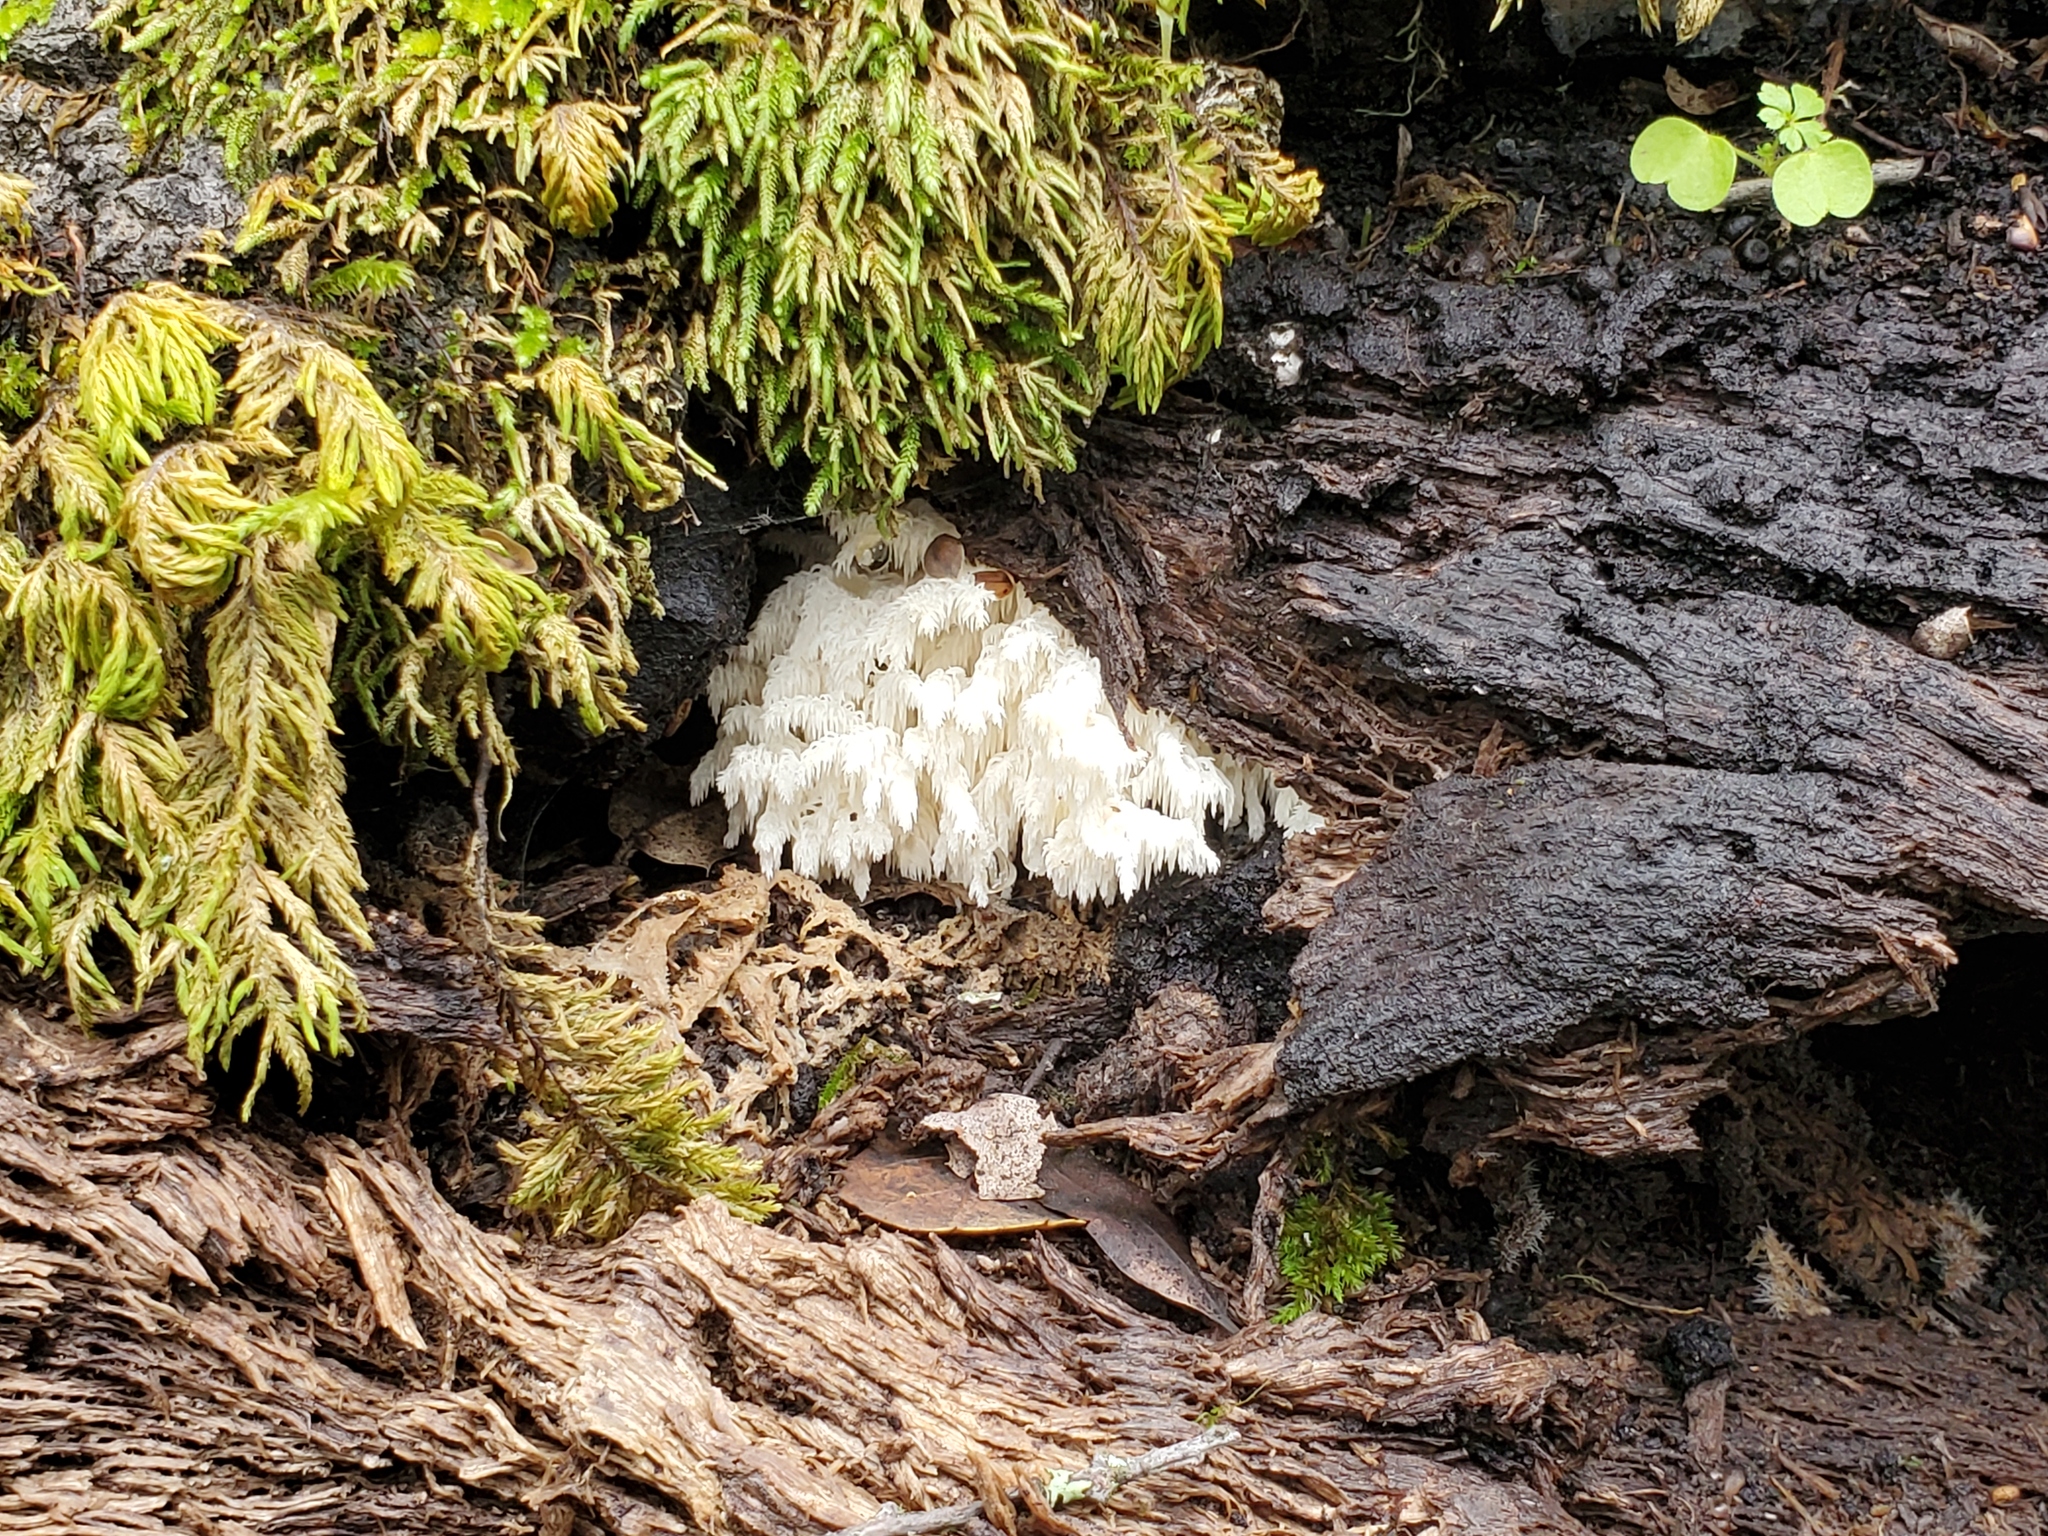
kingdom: Fungi
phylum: Basidiomycota
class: Agaricomycetes
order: Russulales
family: Hericiaceae
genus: Hericium
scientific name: Hericium coralloides
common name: Coral tooth
